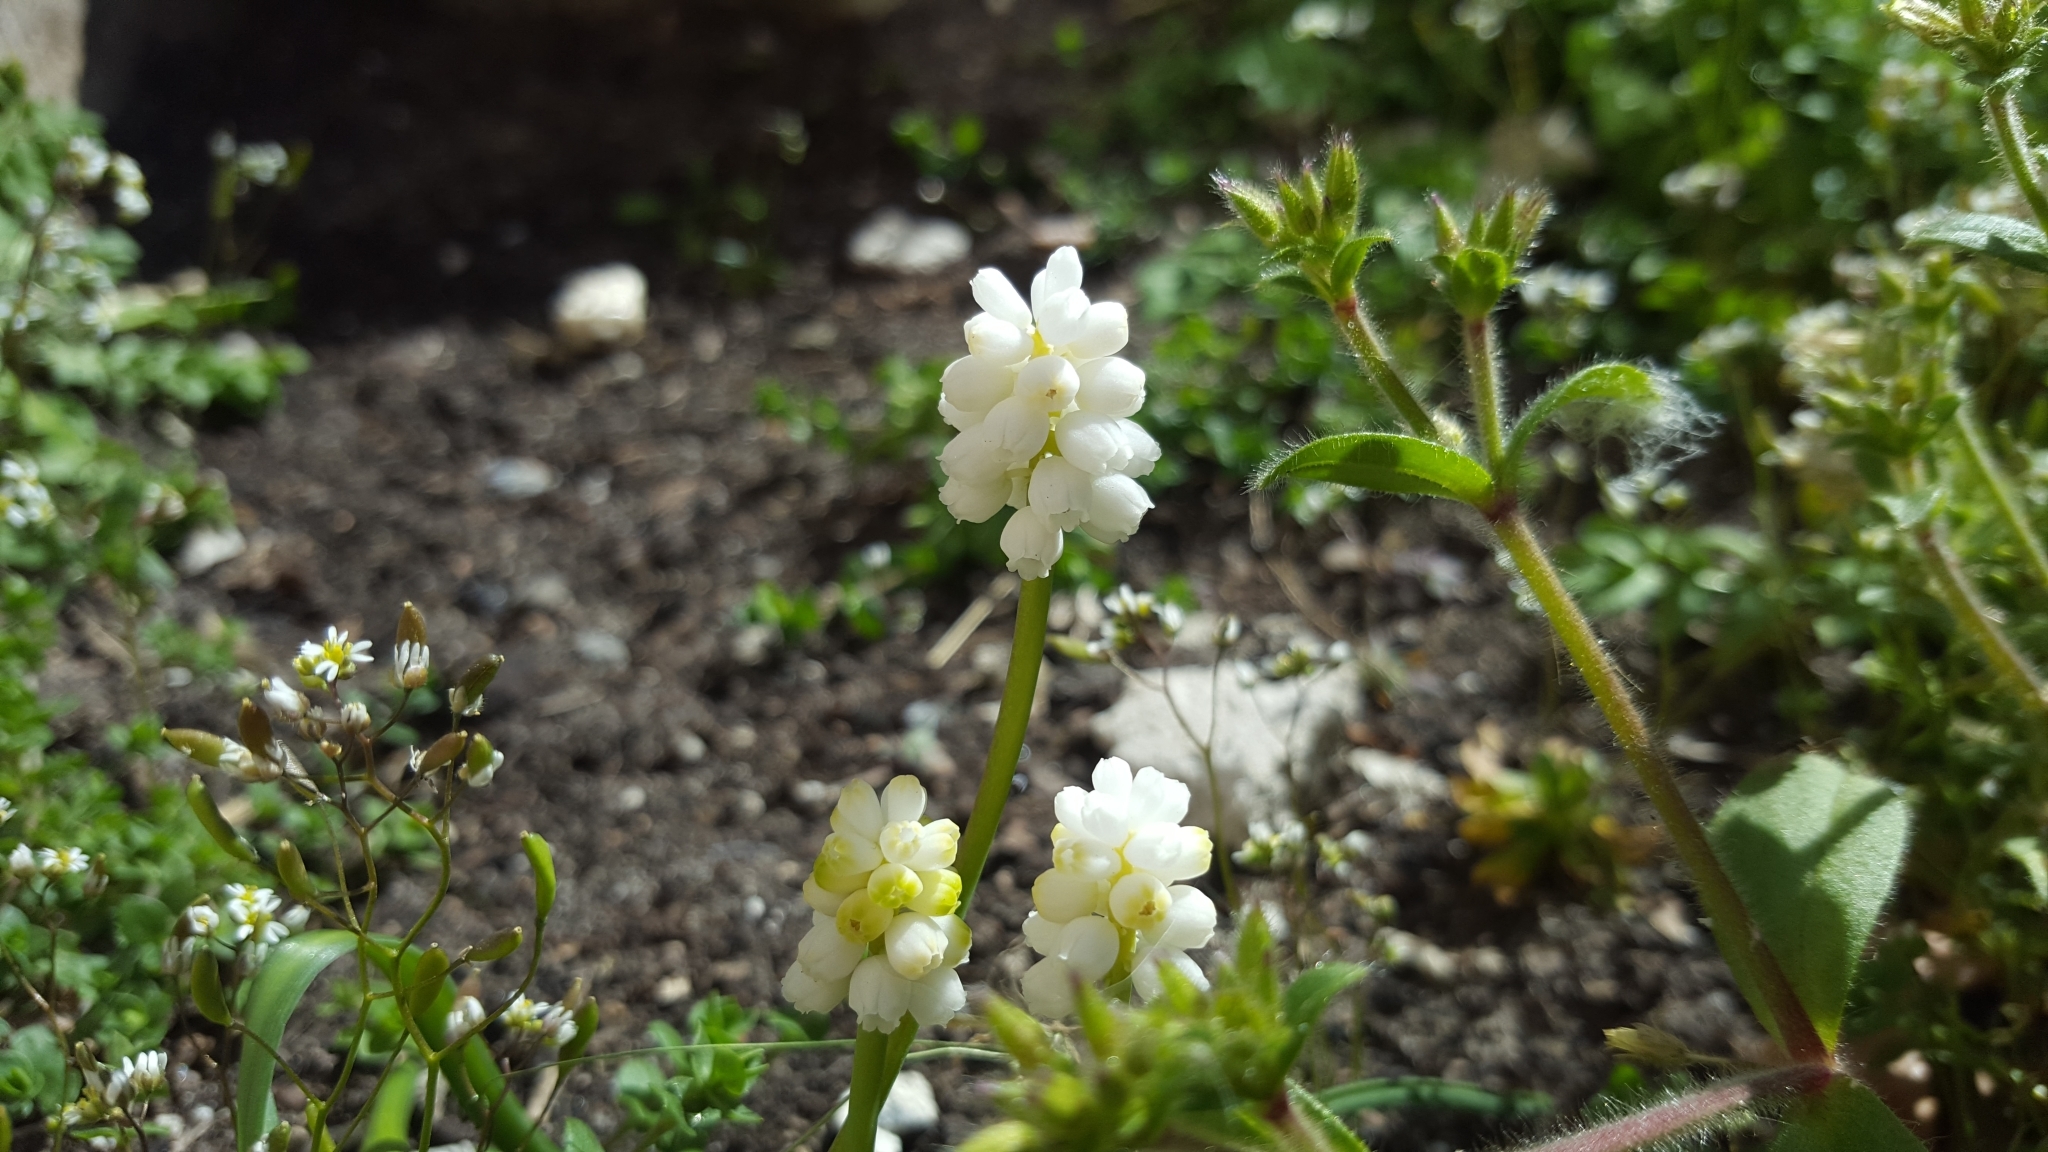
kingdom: Plantae
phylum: Tracheophyta
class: Magnoliopsida
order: Brassicales
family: Brassicaceae
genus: Draba
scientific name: Draba verna
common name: Spring draba
